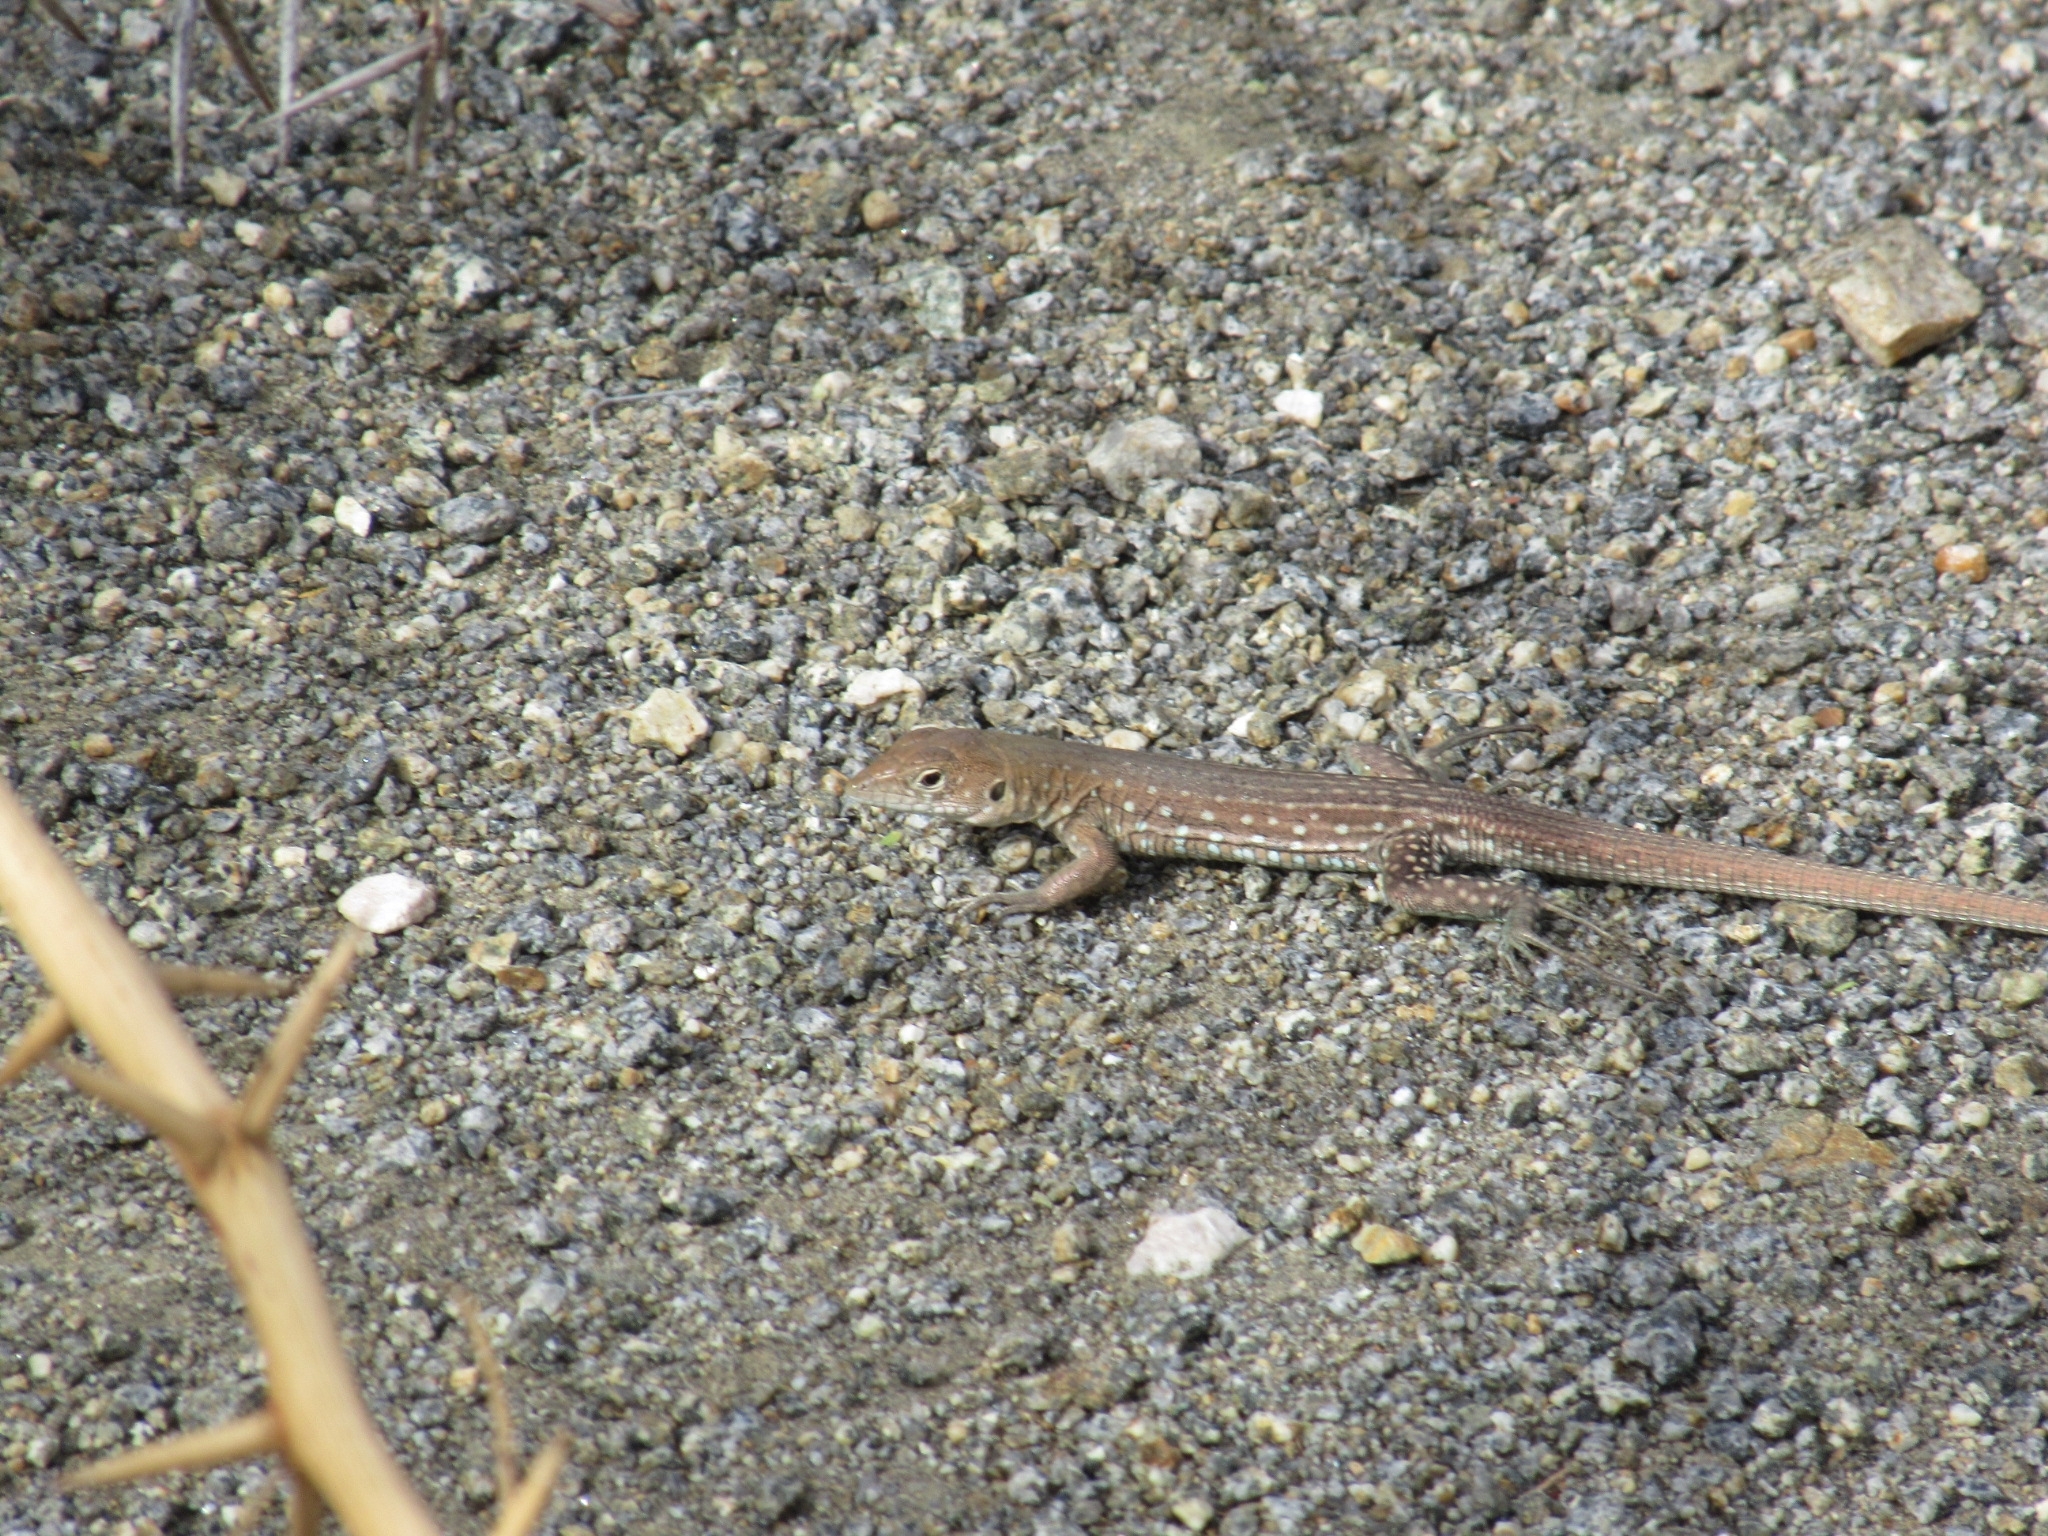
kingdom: Animalia
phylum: Chordata
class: Squamata
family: Teiidae
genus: Cnemidophorus
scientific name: Cnemidophorus arubensis
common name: Aruba whiptail
